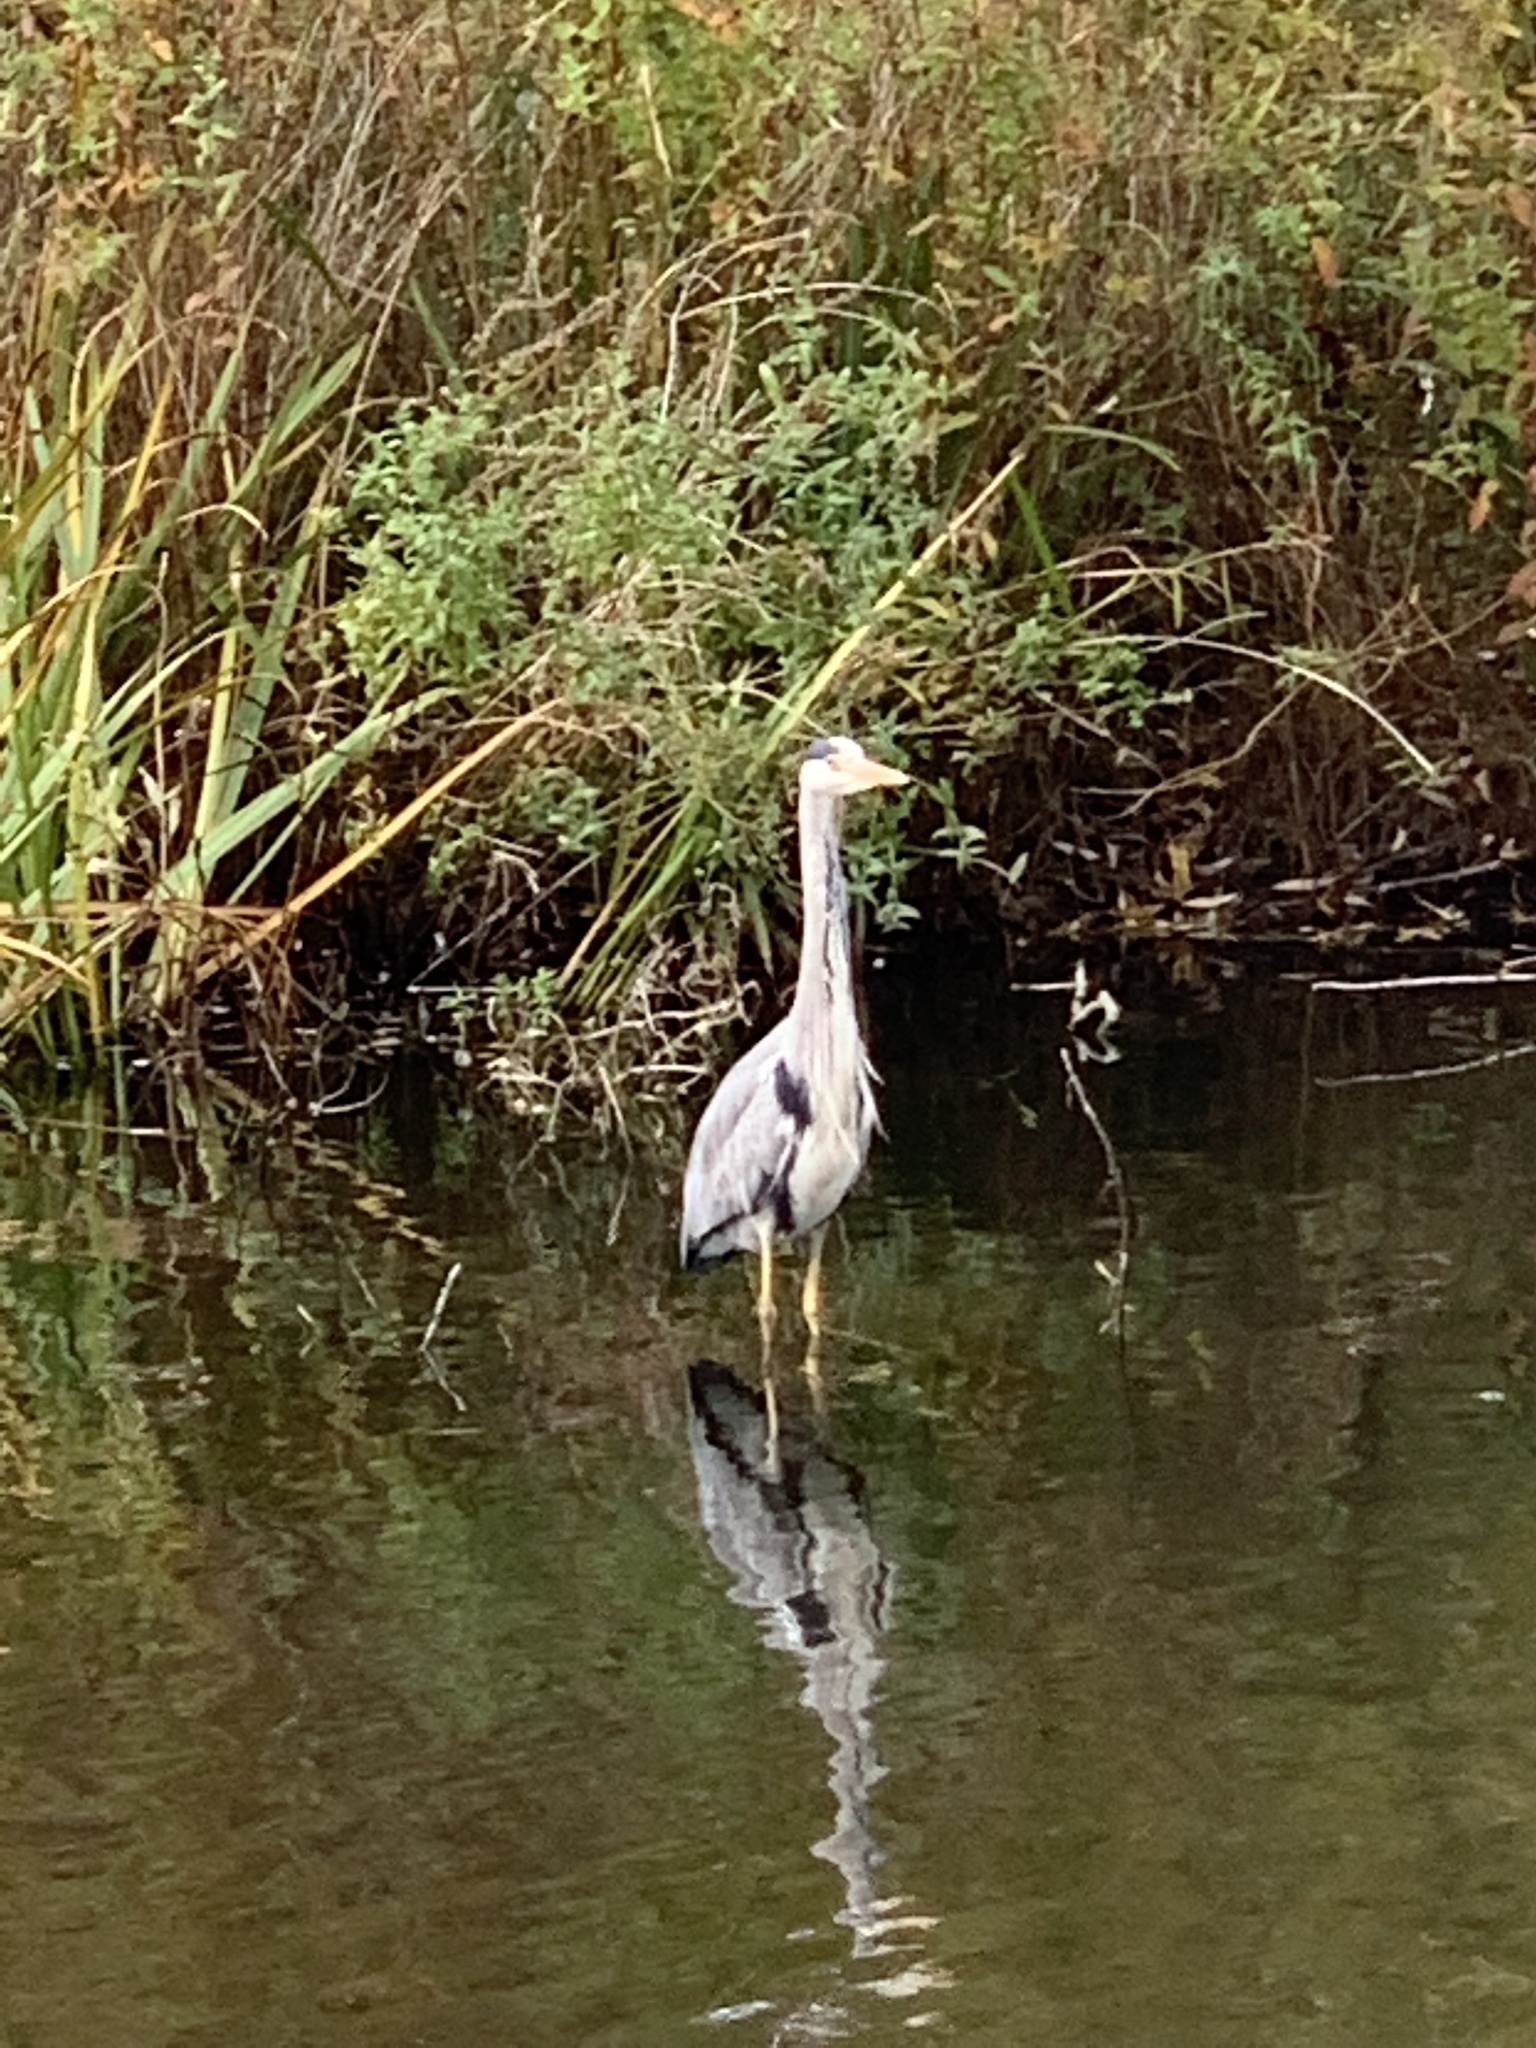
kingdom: Animalia
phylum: Chordata
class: Aves
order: Pelecaniformes
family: Ardeidae
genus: Ardea
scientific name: Ardea cinerea
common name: Grey heron
